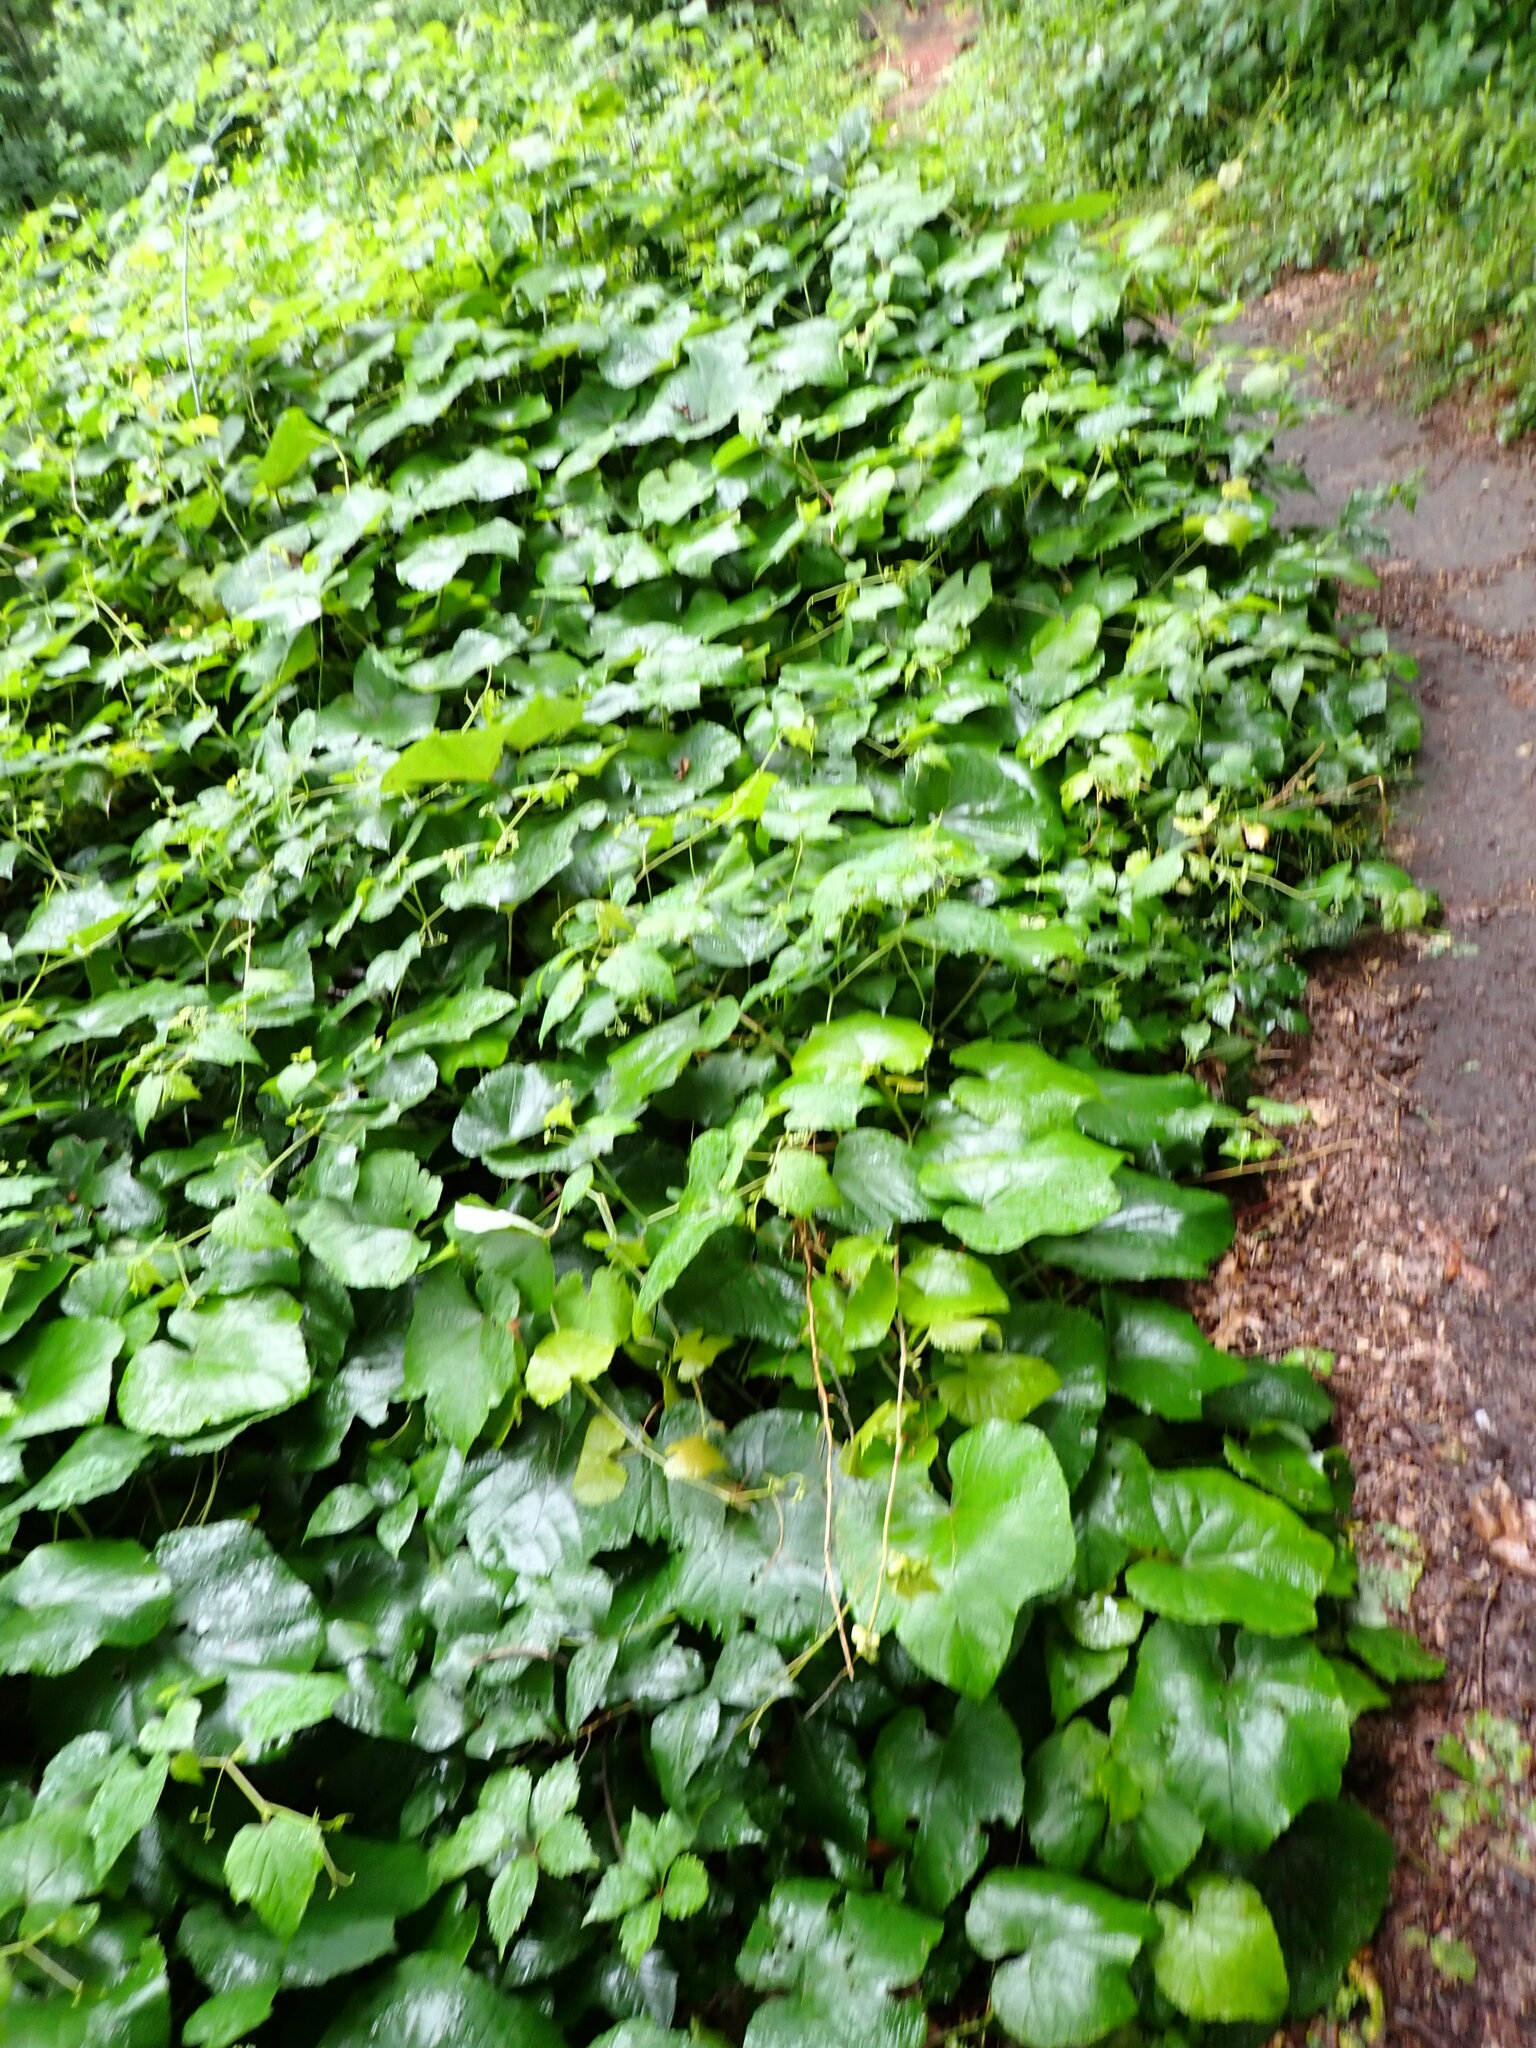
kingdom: Plantae
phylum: Tracheophyta
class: Magnoliopsida
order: Vitales
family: Vitaceae
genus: Vitis
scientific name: Vitis aestivalis
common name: Pigeon grape
